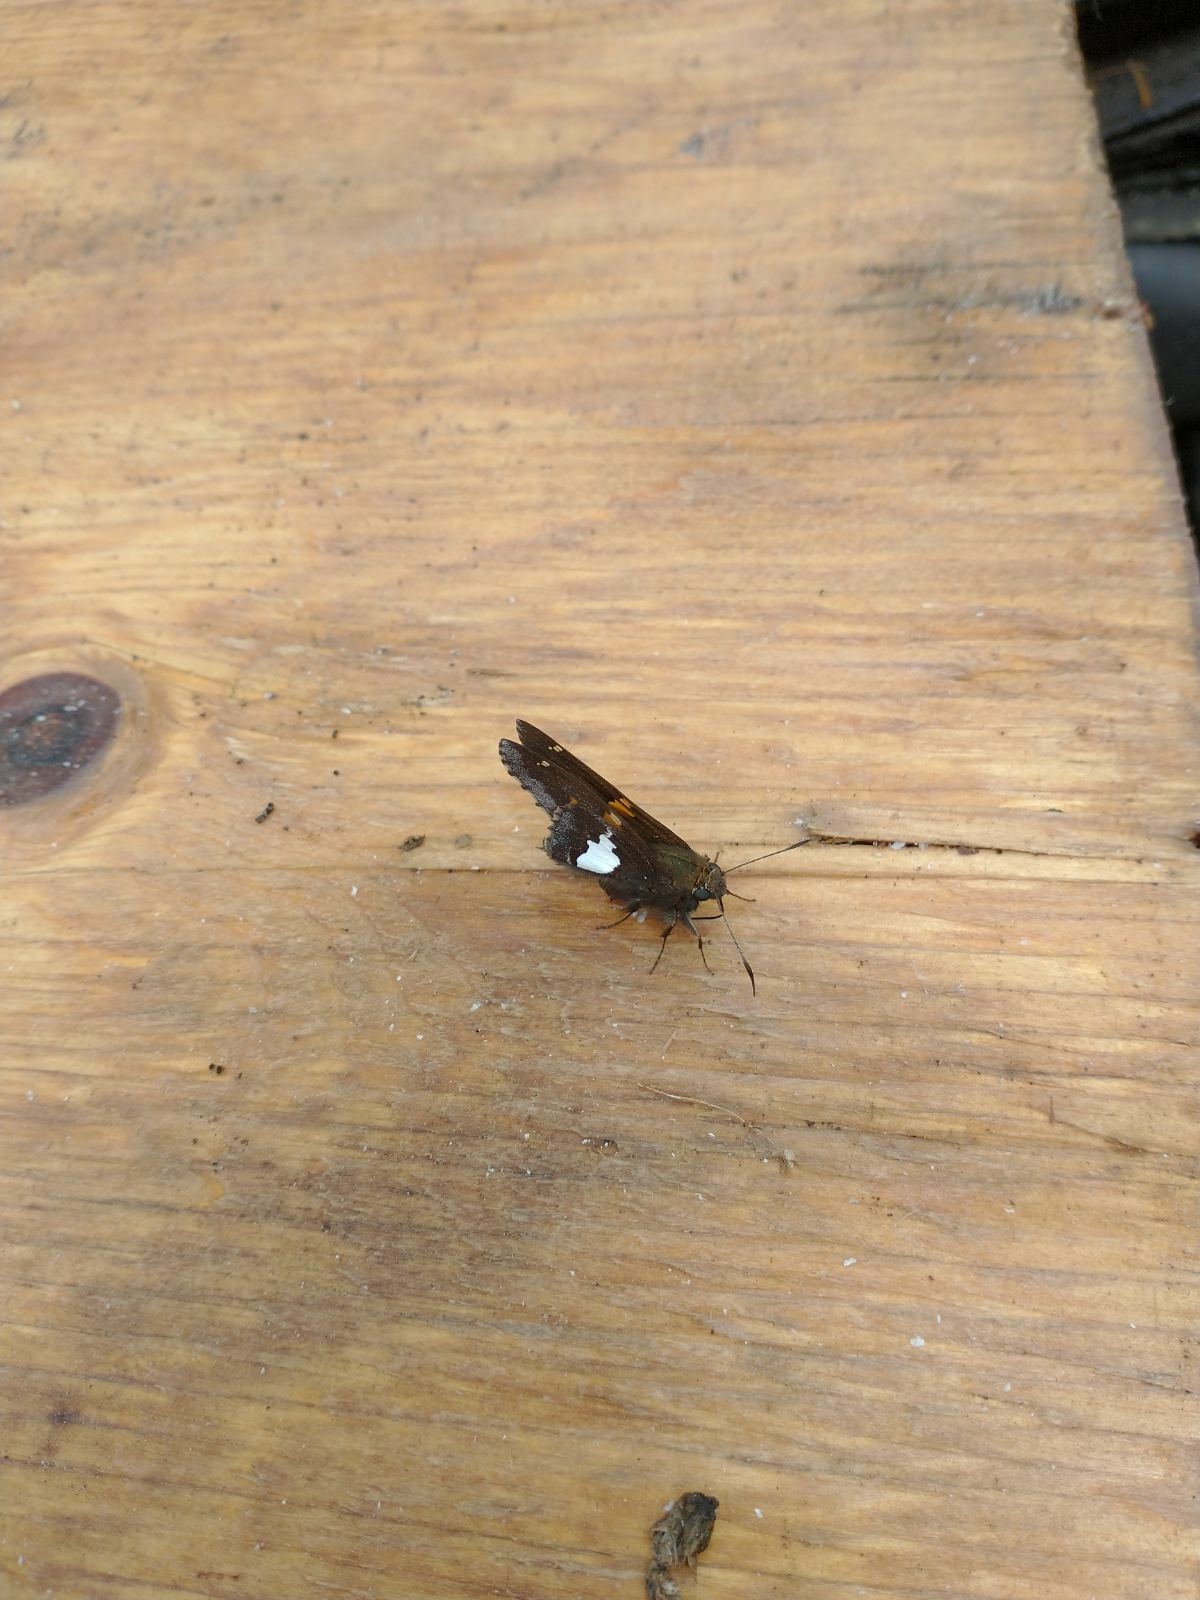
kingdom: Animalia
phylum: Arthropoda
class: Insecta
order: Lepidoptera
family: Hesperiidae
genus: Epargyreus
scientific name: Epargyreus clarus
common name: Silver-spotted skipper
